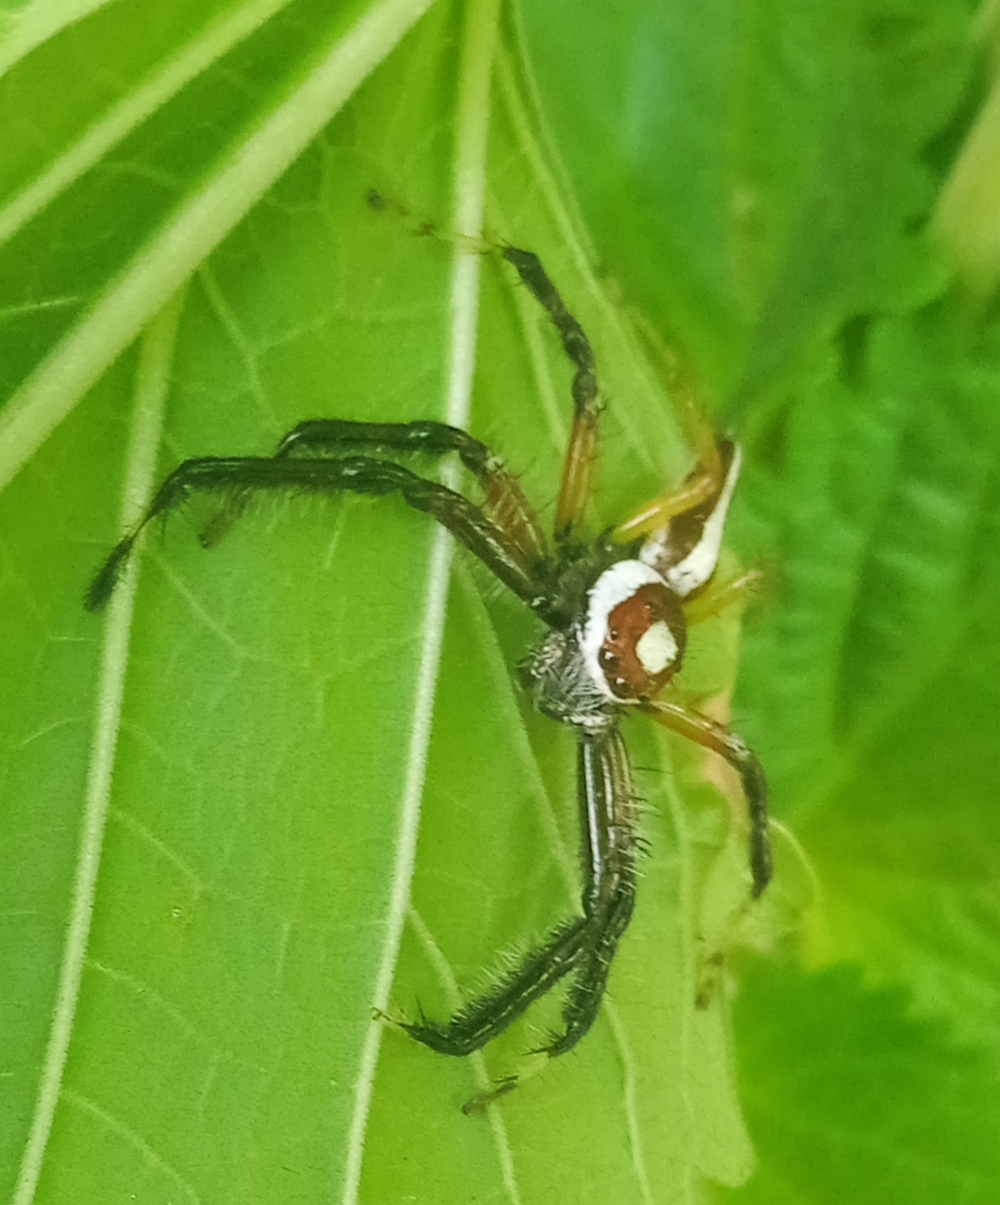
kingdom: Animalia
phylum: Arthropoda
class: Arachnida
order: Araneae
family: Salticidae
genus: Telamonia
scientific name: Telamonia dimidiata
